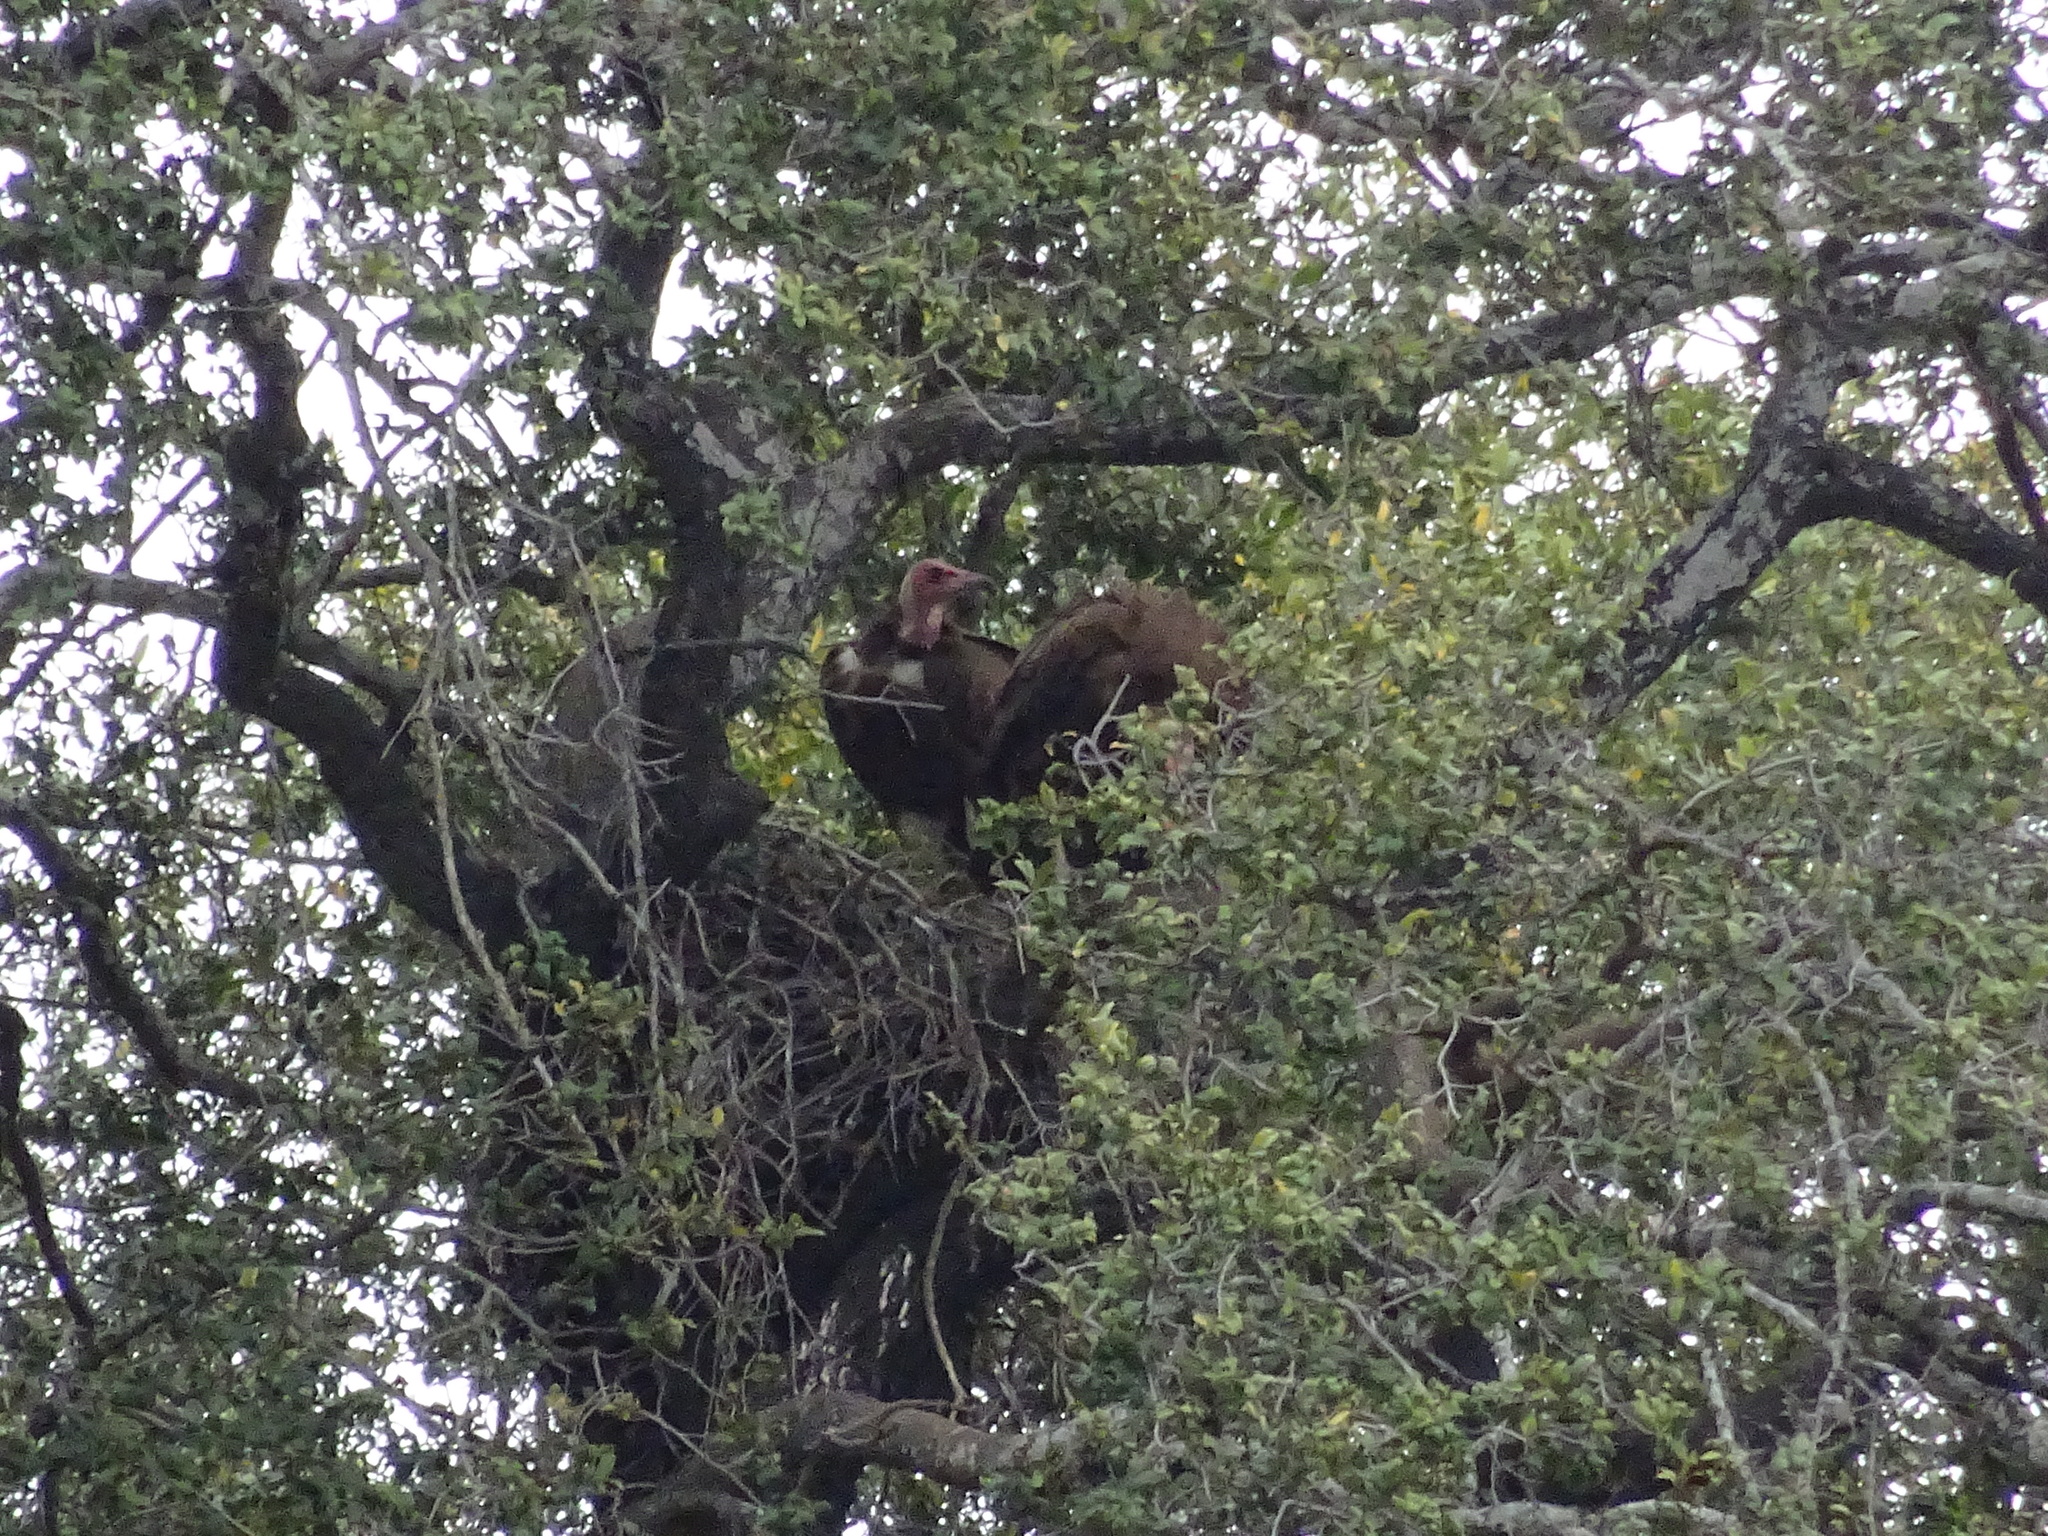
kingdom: Animalia
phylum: Chordata
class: Aves
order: Accipitriformes
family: Accipitridae
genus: Necrosyrtes
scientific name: Necrosyrtes monachus
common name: Hooded vulture
